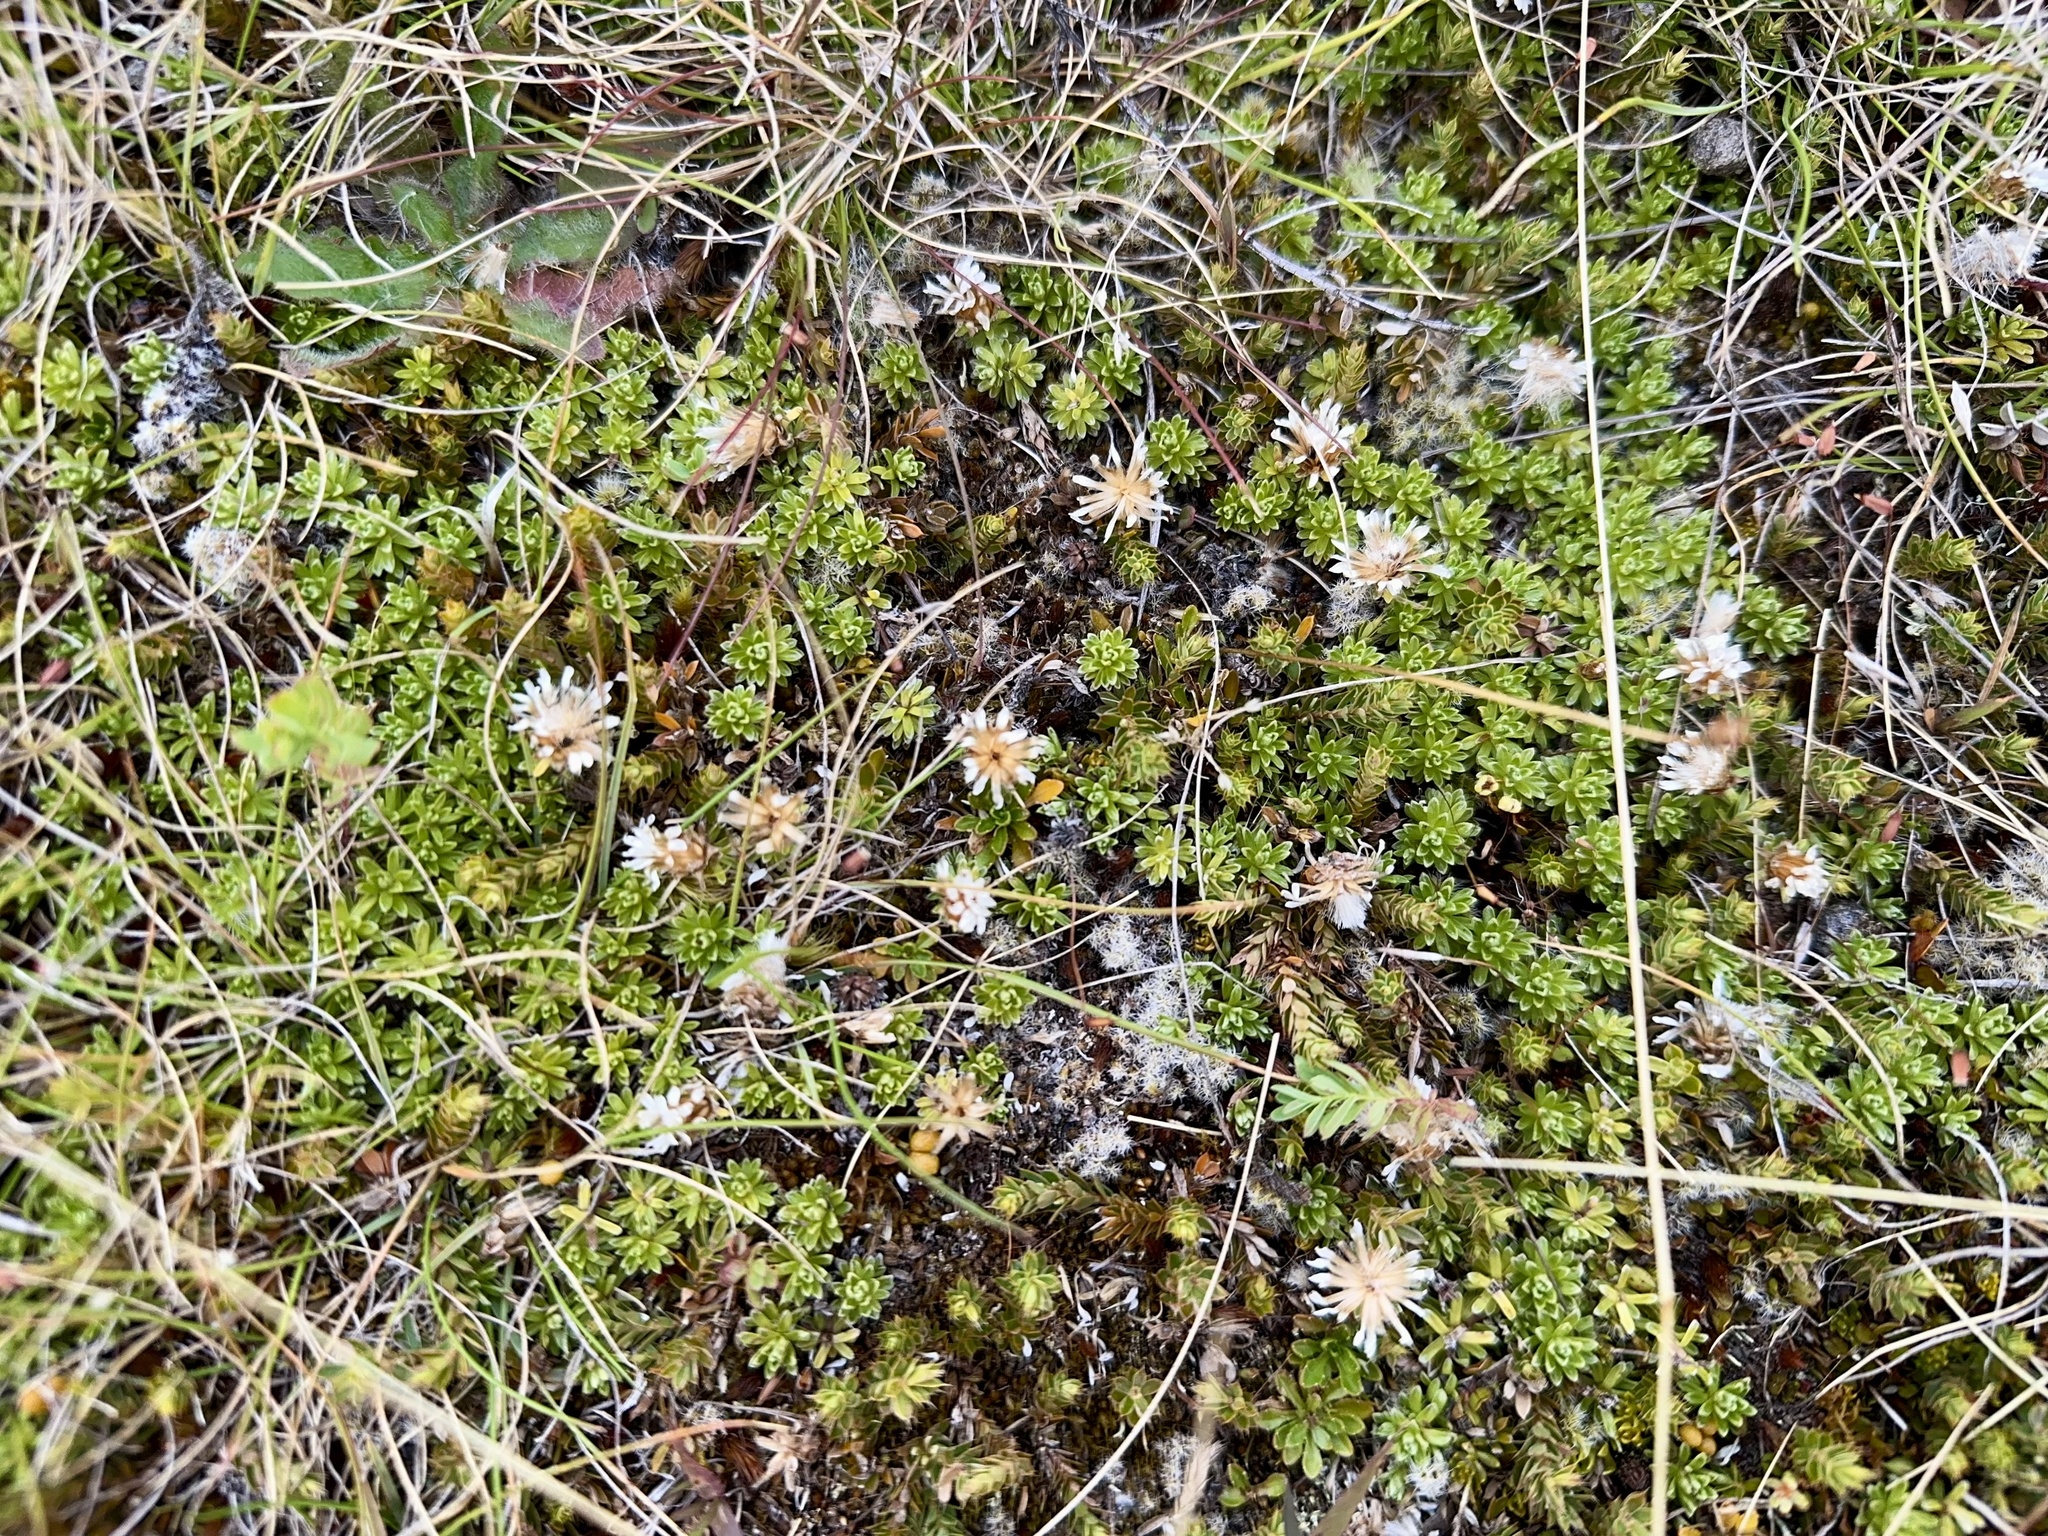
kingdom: Plantae
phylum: Tracheophyta
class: Magnoliopsida
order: Asterales
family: Asteraceae
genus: Raoulia
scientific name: Raoulia subsericea
